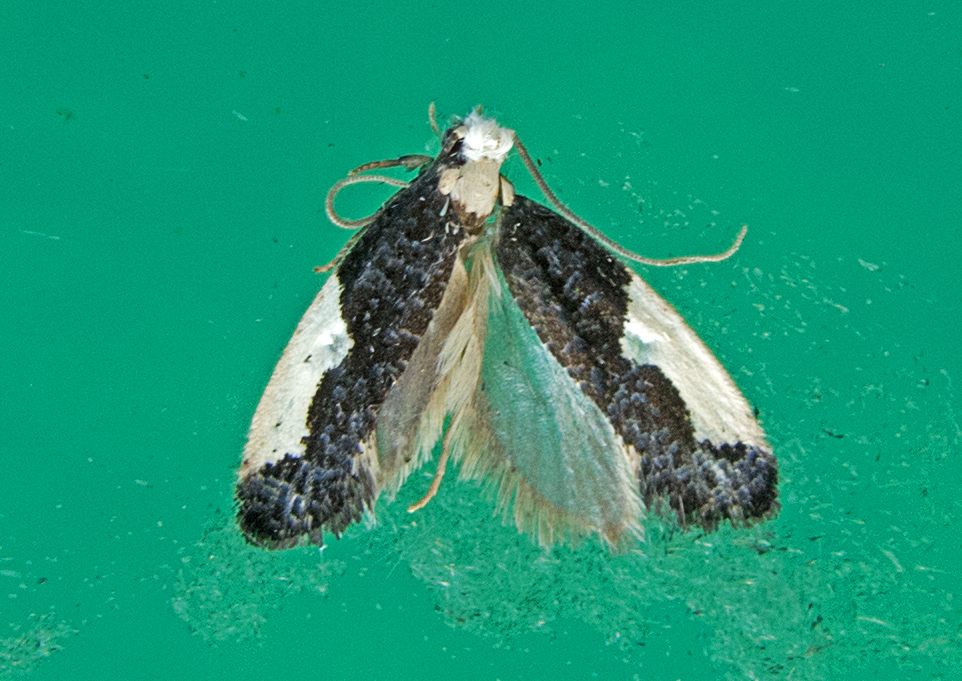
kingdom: Animalia
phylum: Arthropoda
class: Insecta
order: Lepidoptera
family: Tineidae
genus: Monopis
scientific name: Monopis monachella
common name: Moth
